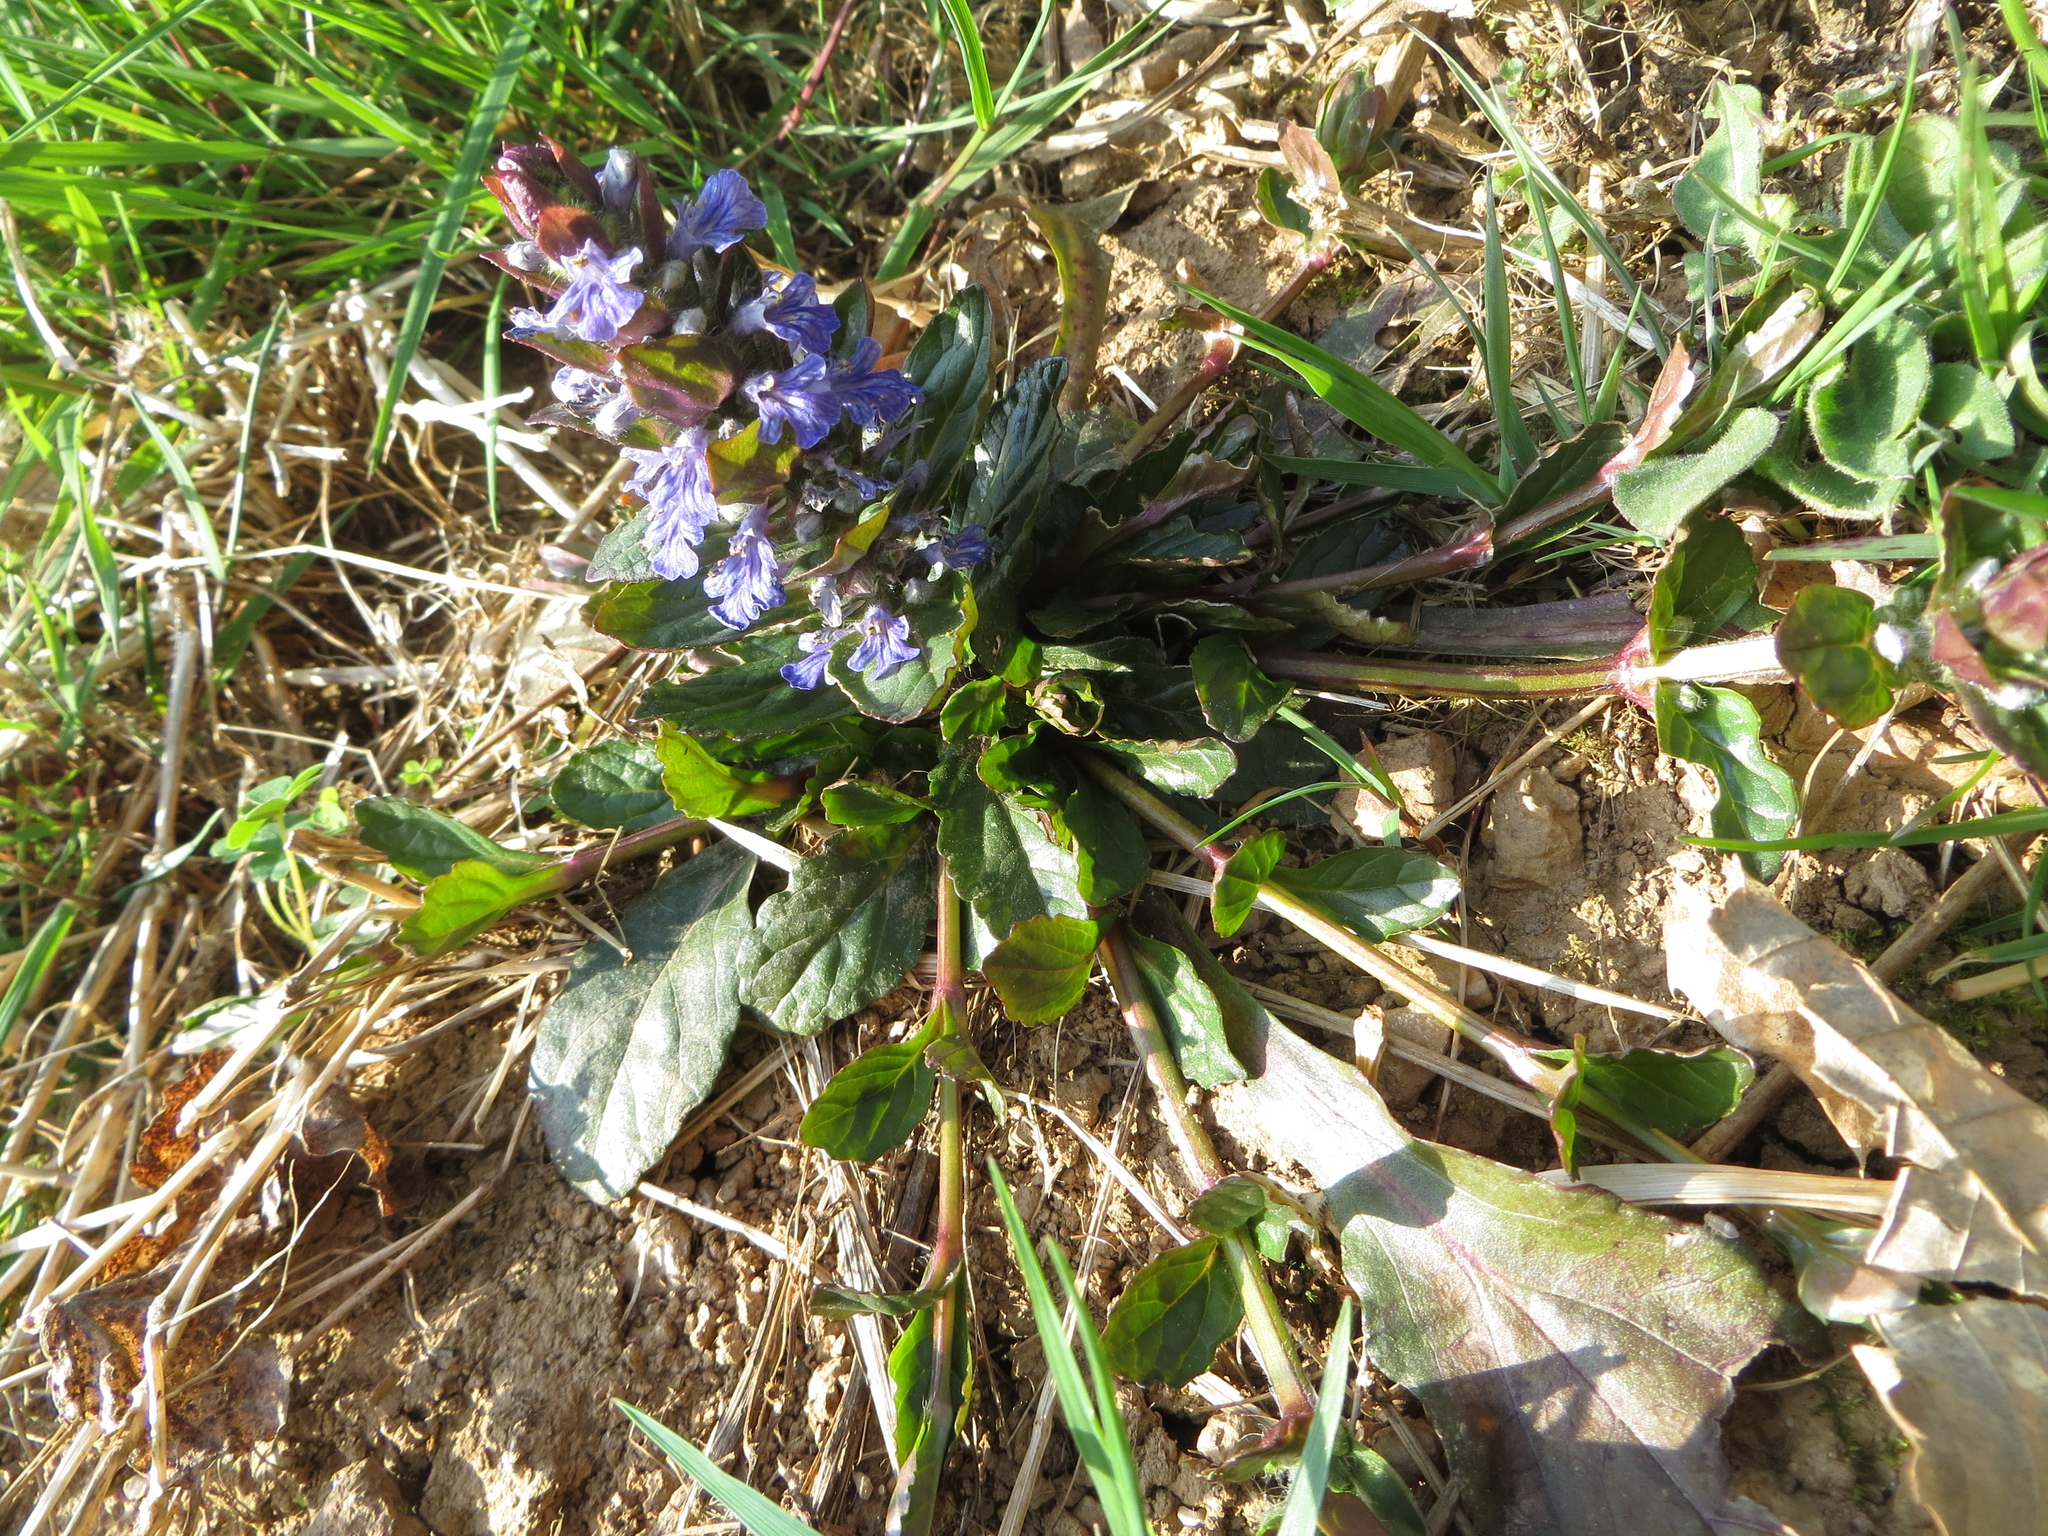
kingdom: Plantae
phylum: Tracheophyta
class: Magnoliopsida
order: Lamiales
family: Lamiaceae
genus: Ajuga
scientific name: Ajuga reptans
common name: Bugle
